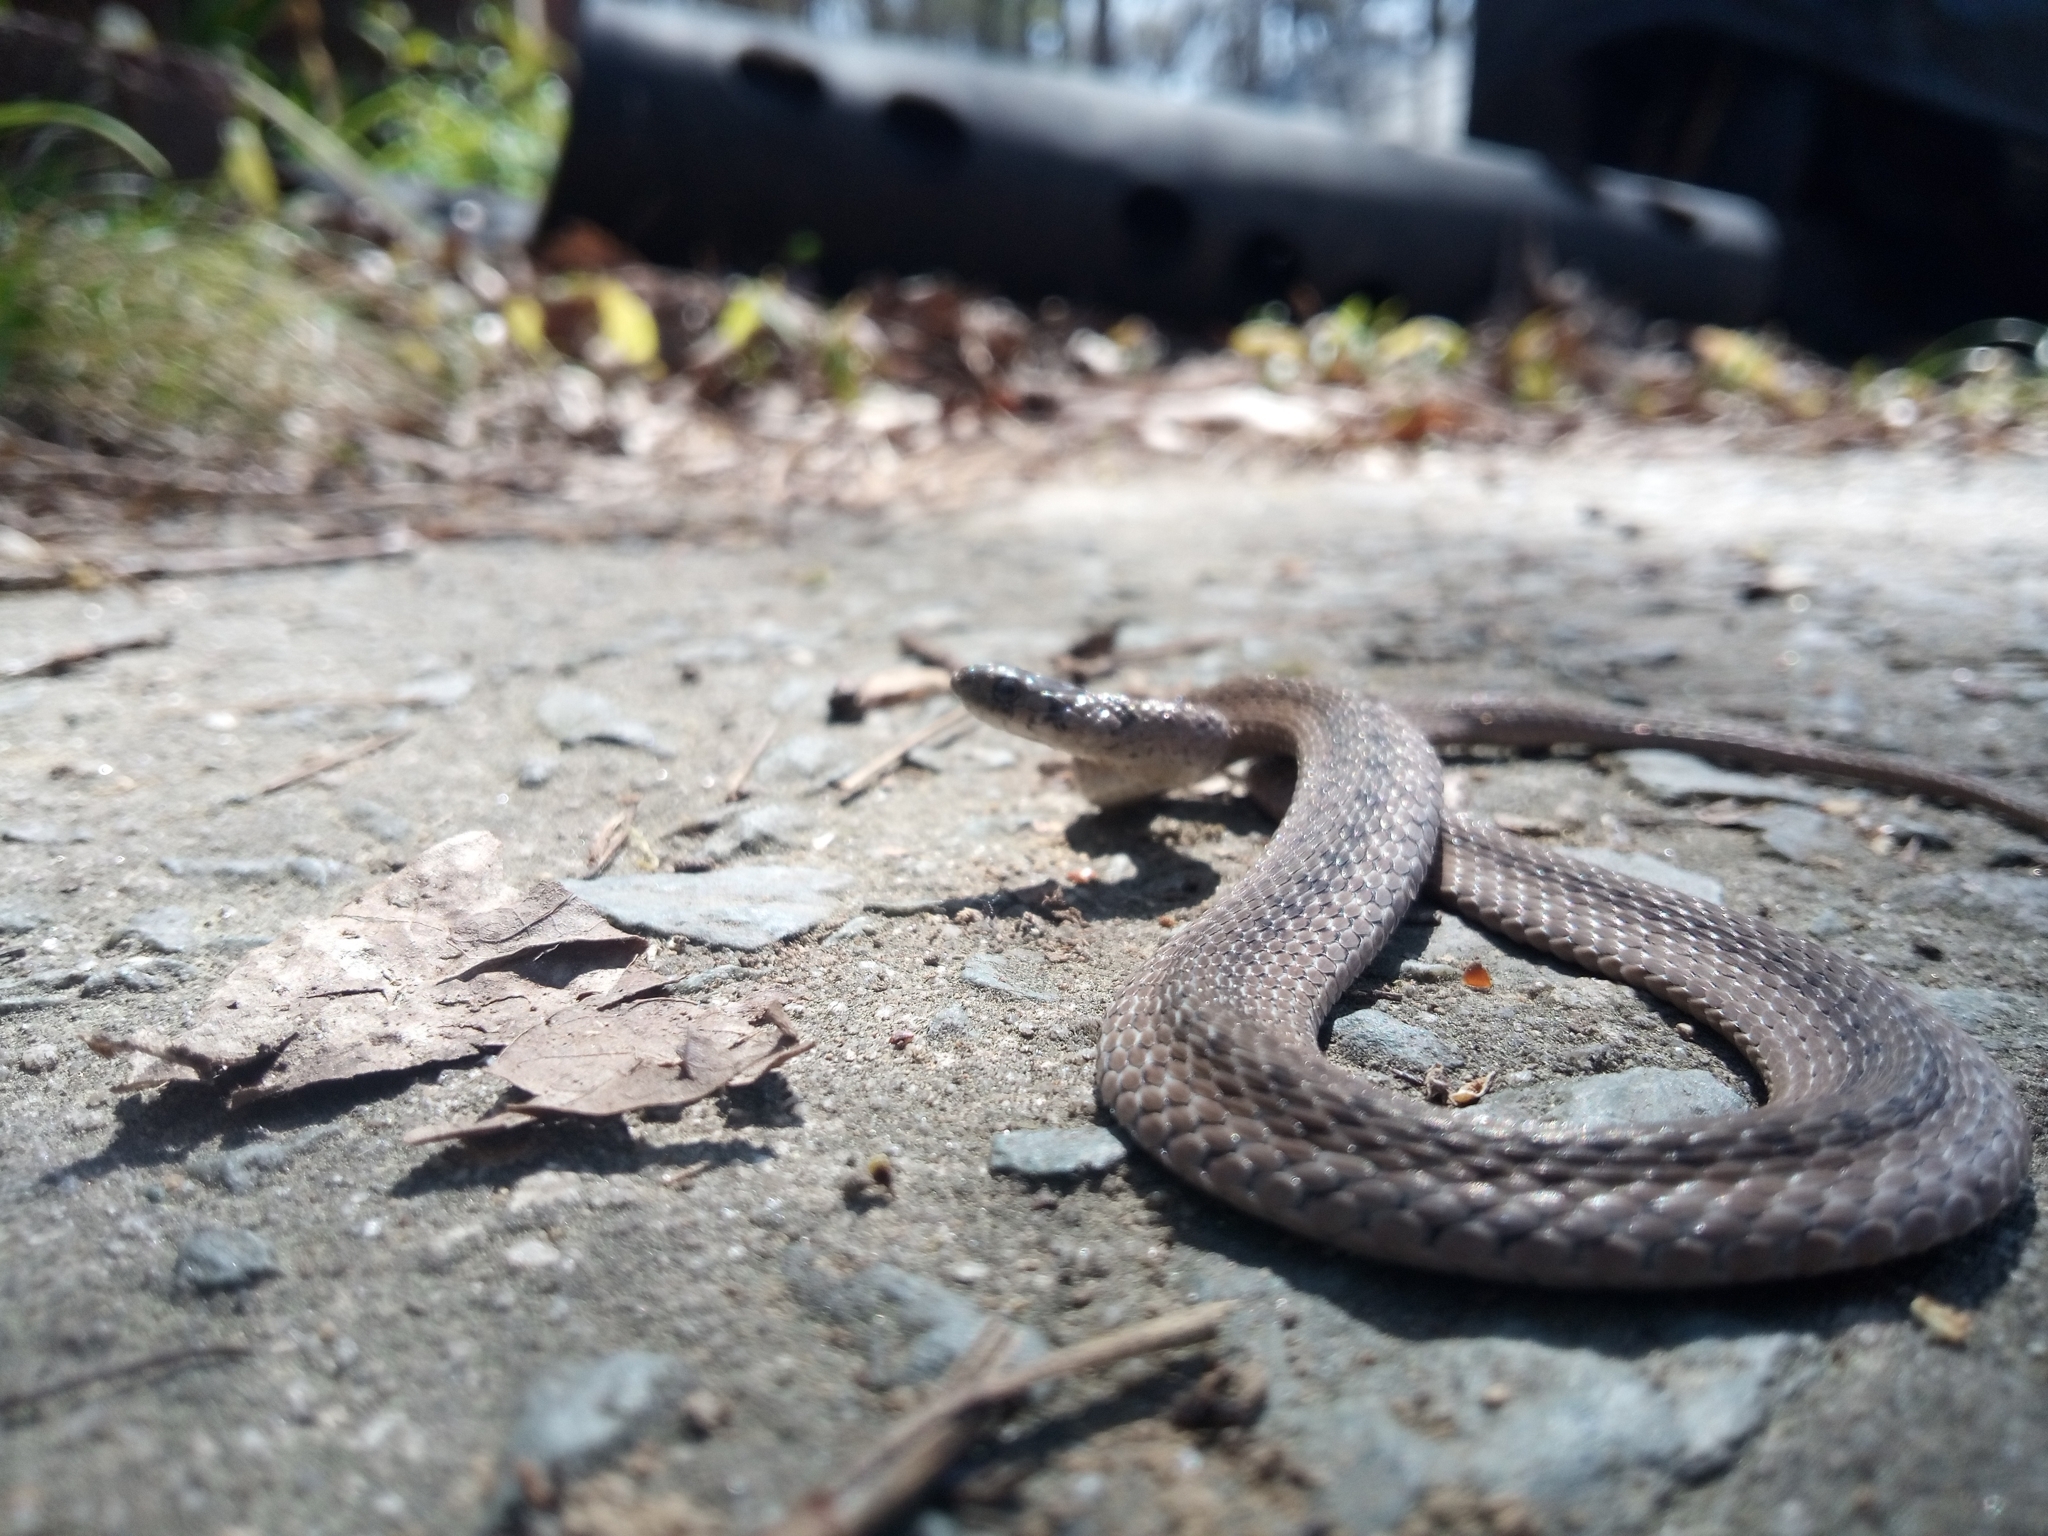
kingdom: Animalia
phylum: Chordata
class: Squamata
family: Colubridae
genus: Storeria
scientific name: Storeria dekayi
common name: (dekay’s) brown snake
